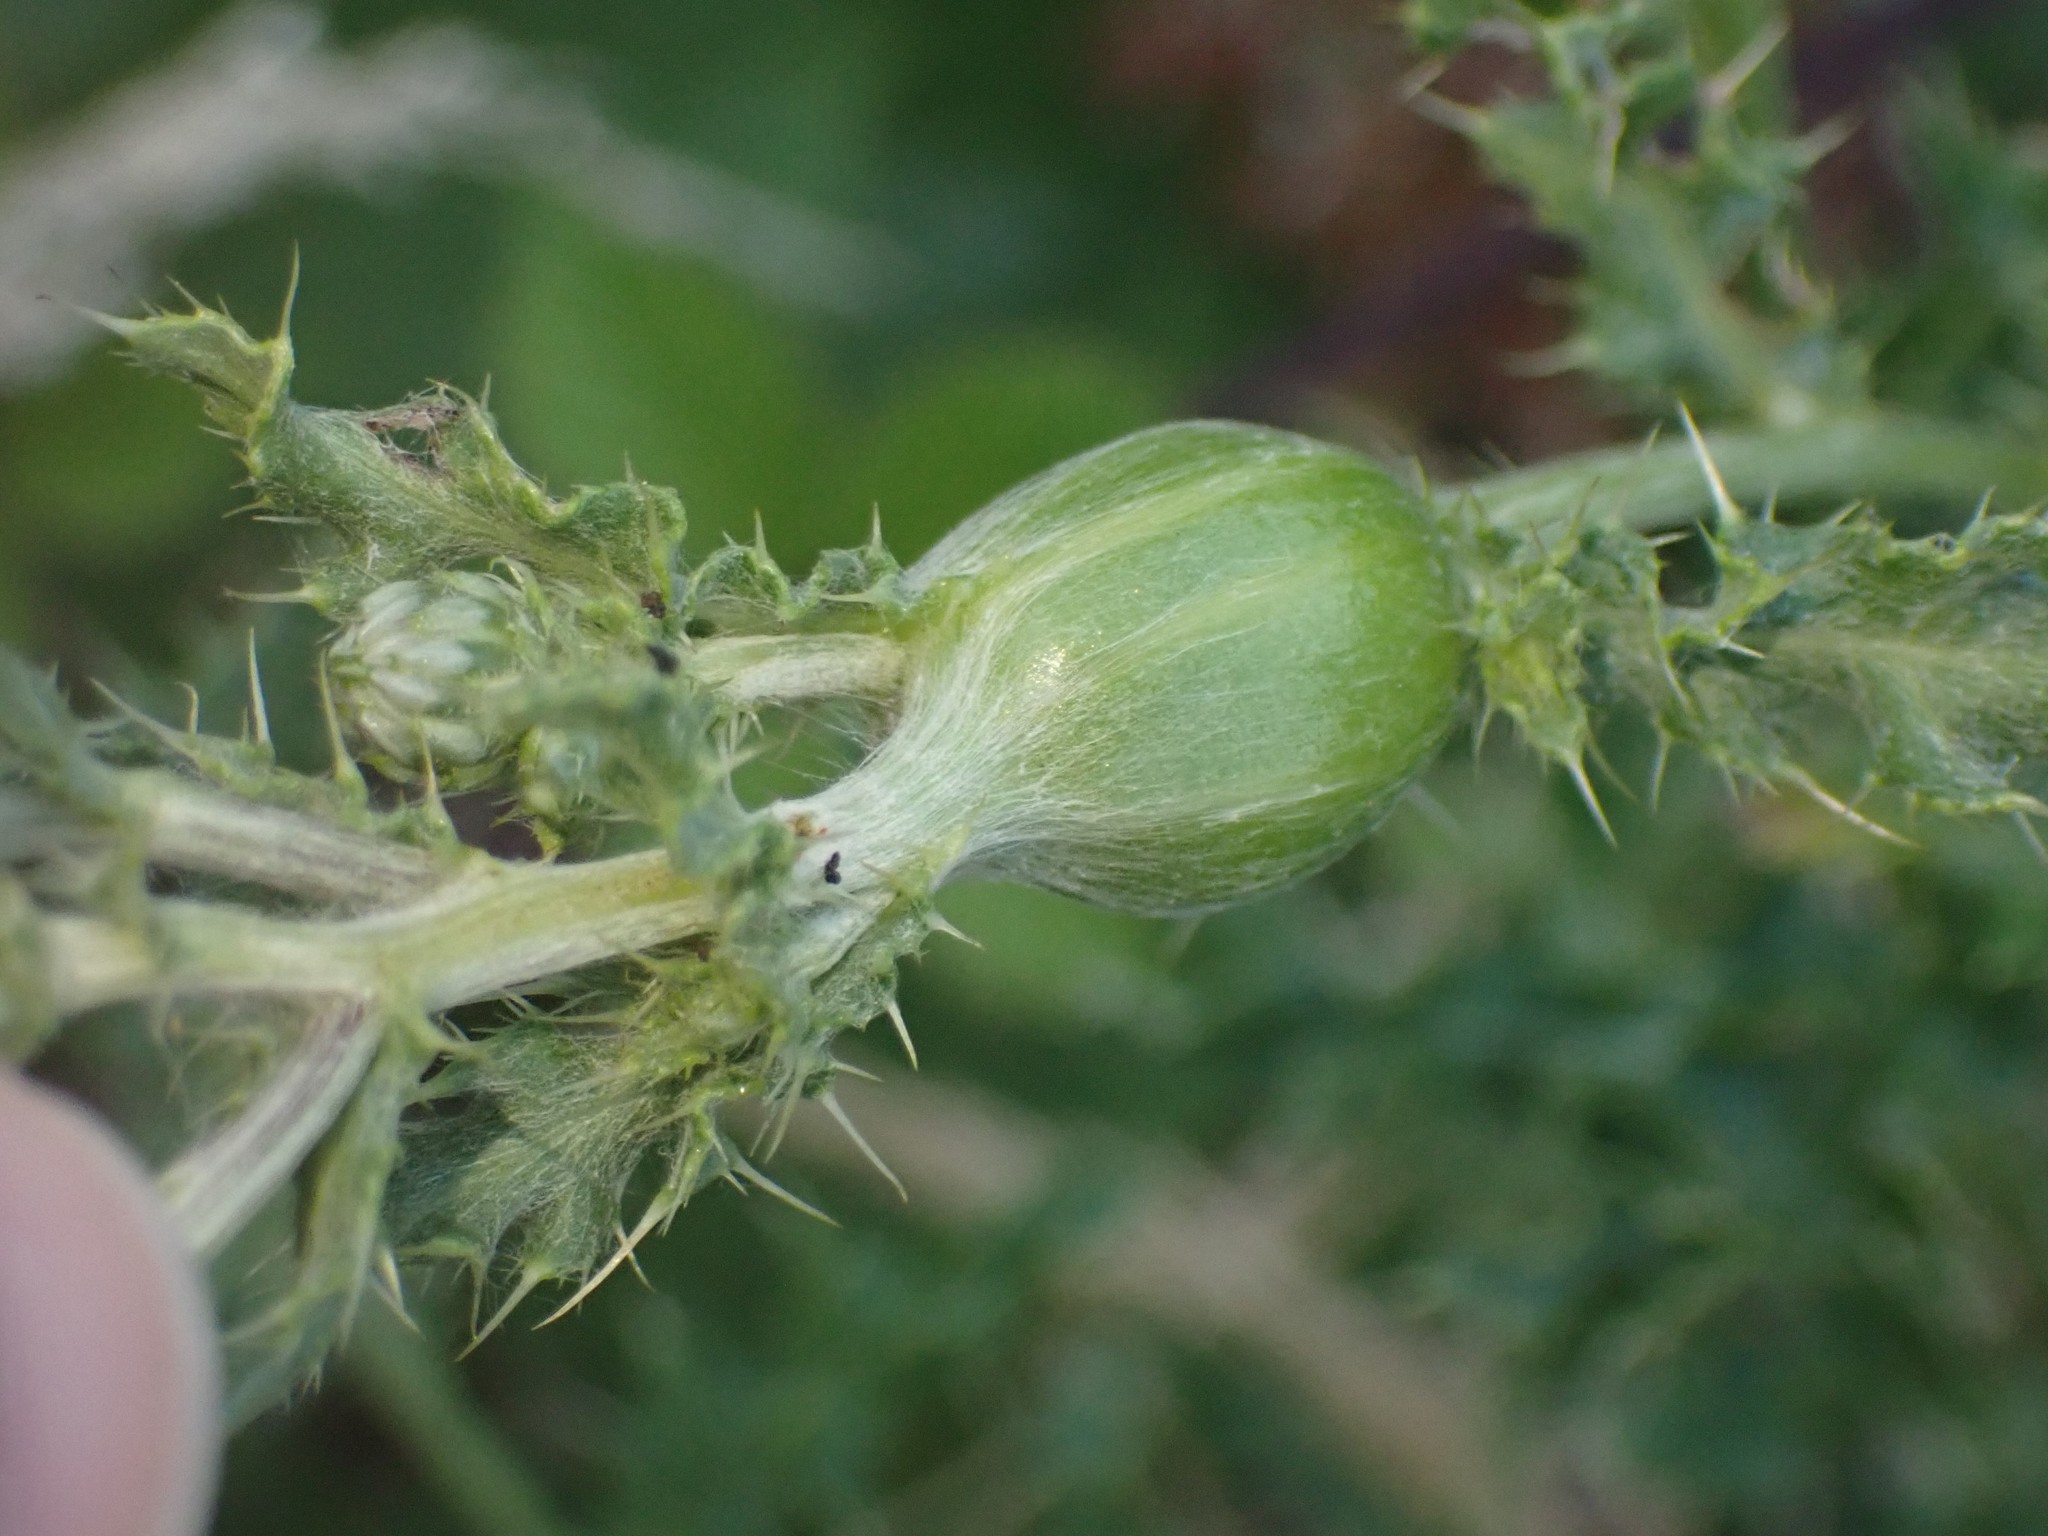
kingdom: Animalia
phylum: Arthropoda
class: Insecta
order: Diptera
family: Tephritidae
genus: Urophora
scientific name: Urophora cardui
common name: Fruit fly
